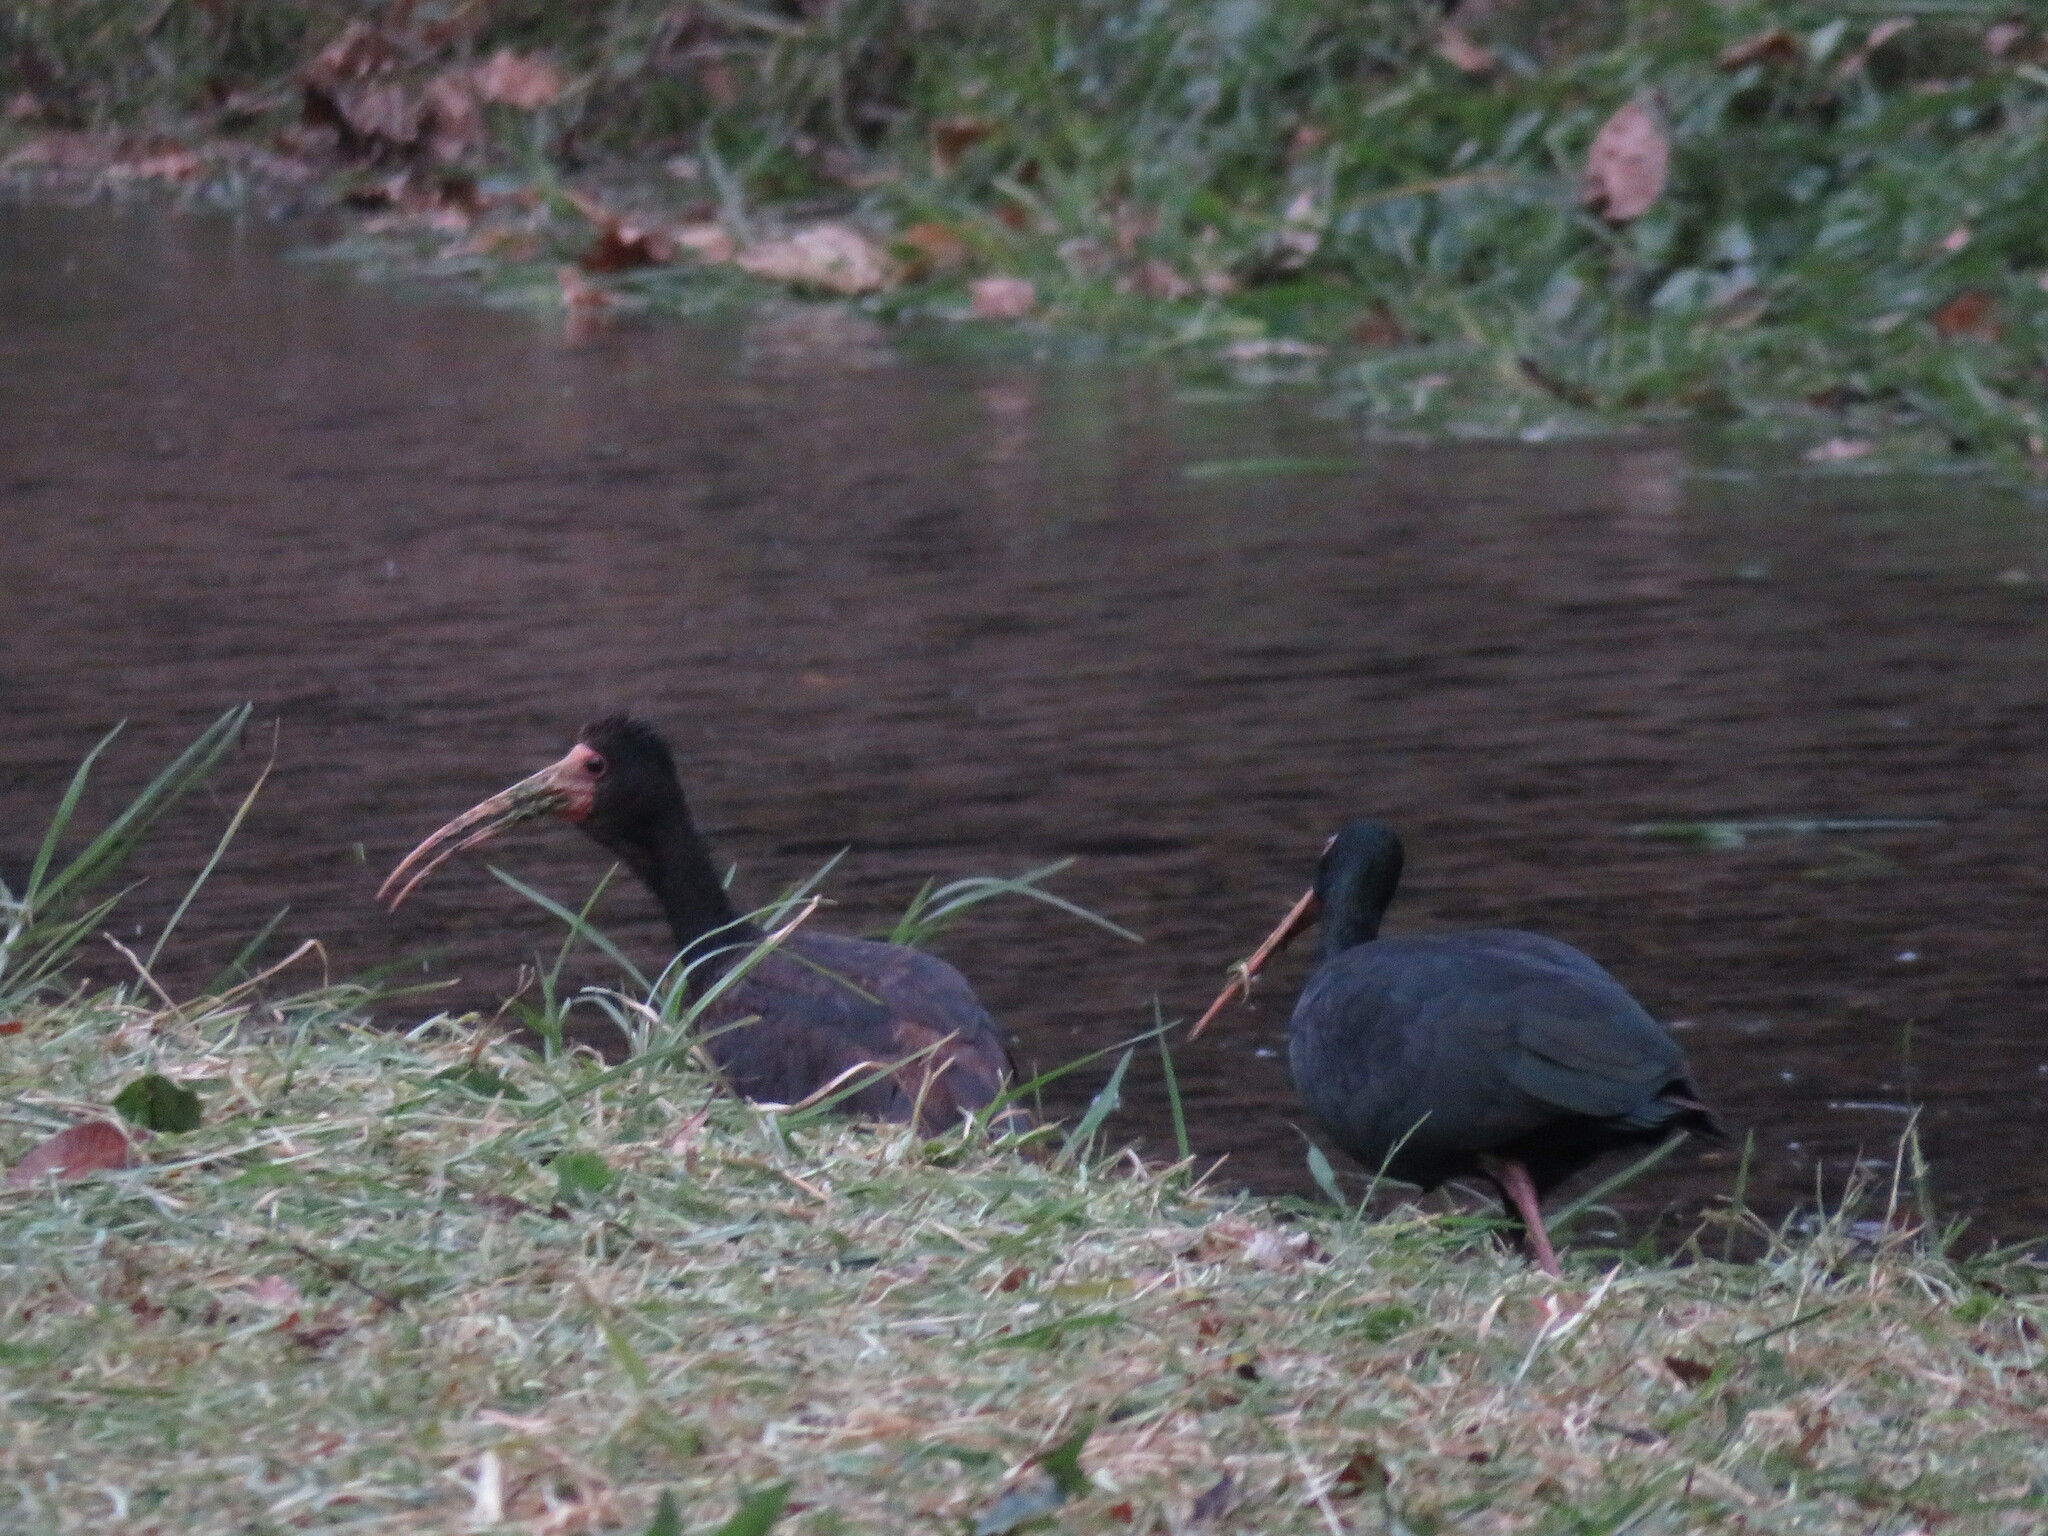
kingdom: Animalia
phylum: Chordata
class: Aves
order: Pelecaniformes
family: Threskiornithidae
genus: Phimosus
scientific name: Phimosus infuscatus
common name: Bare-faced ibis
